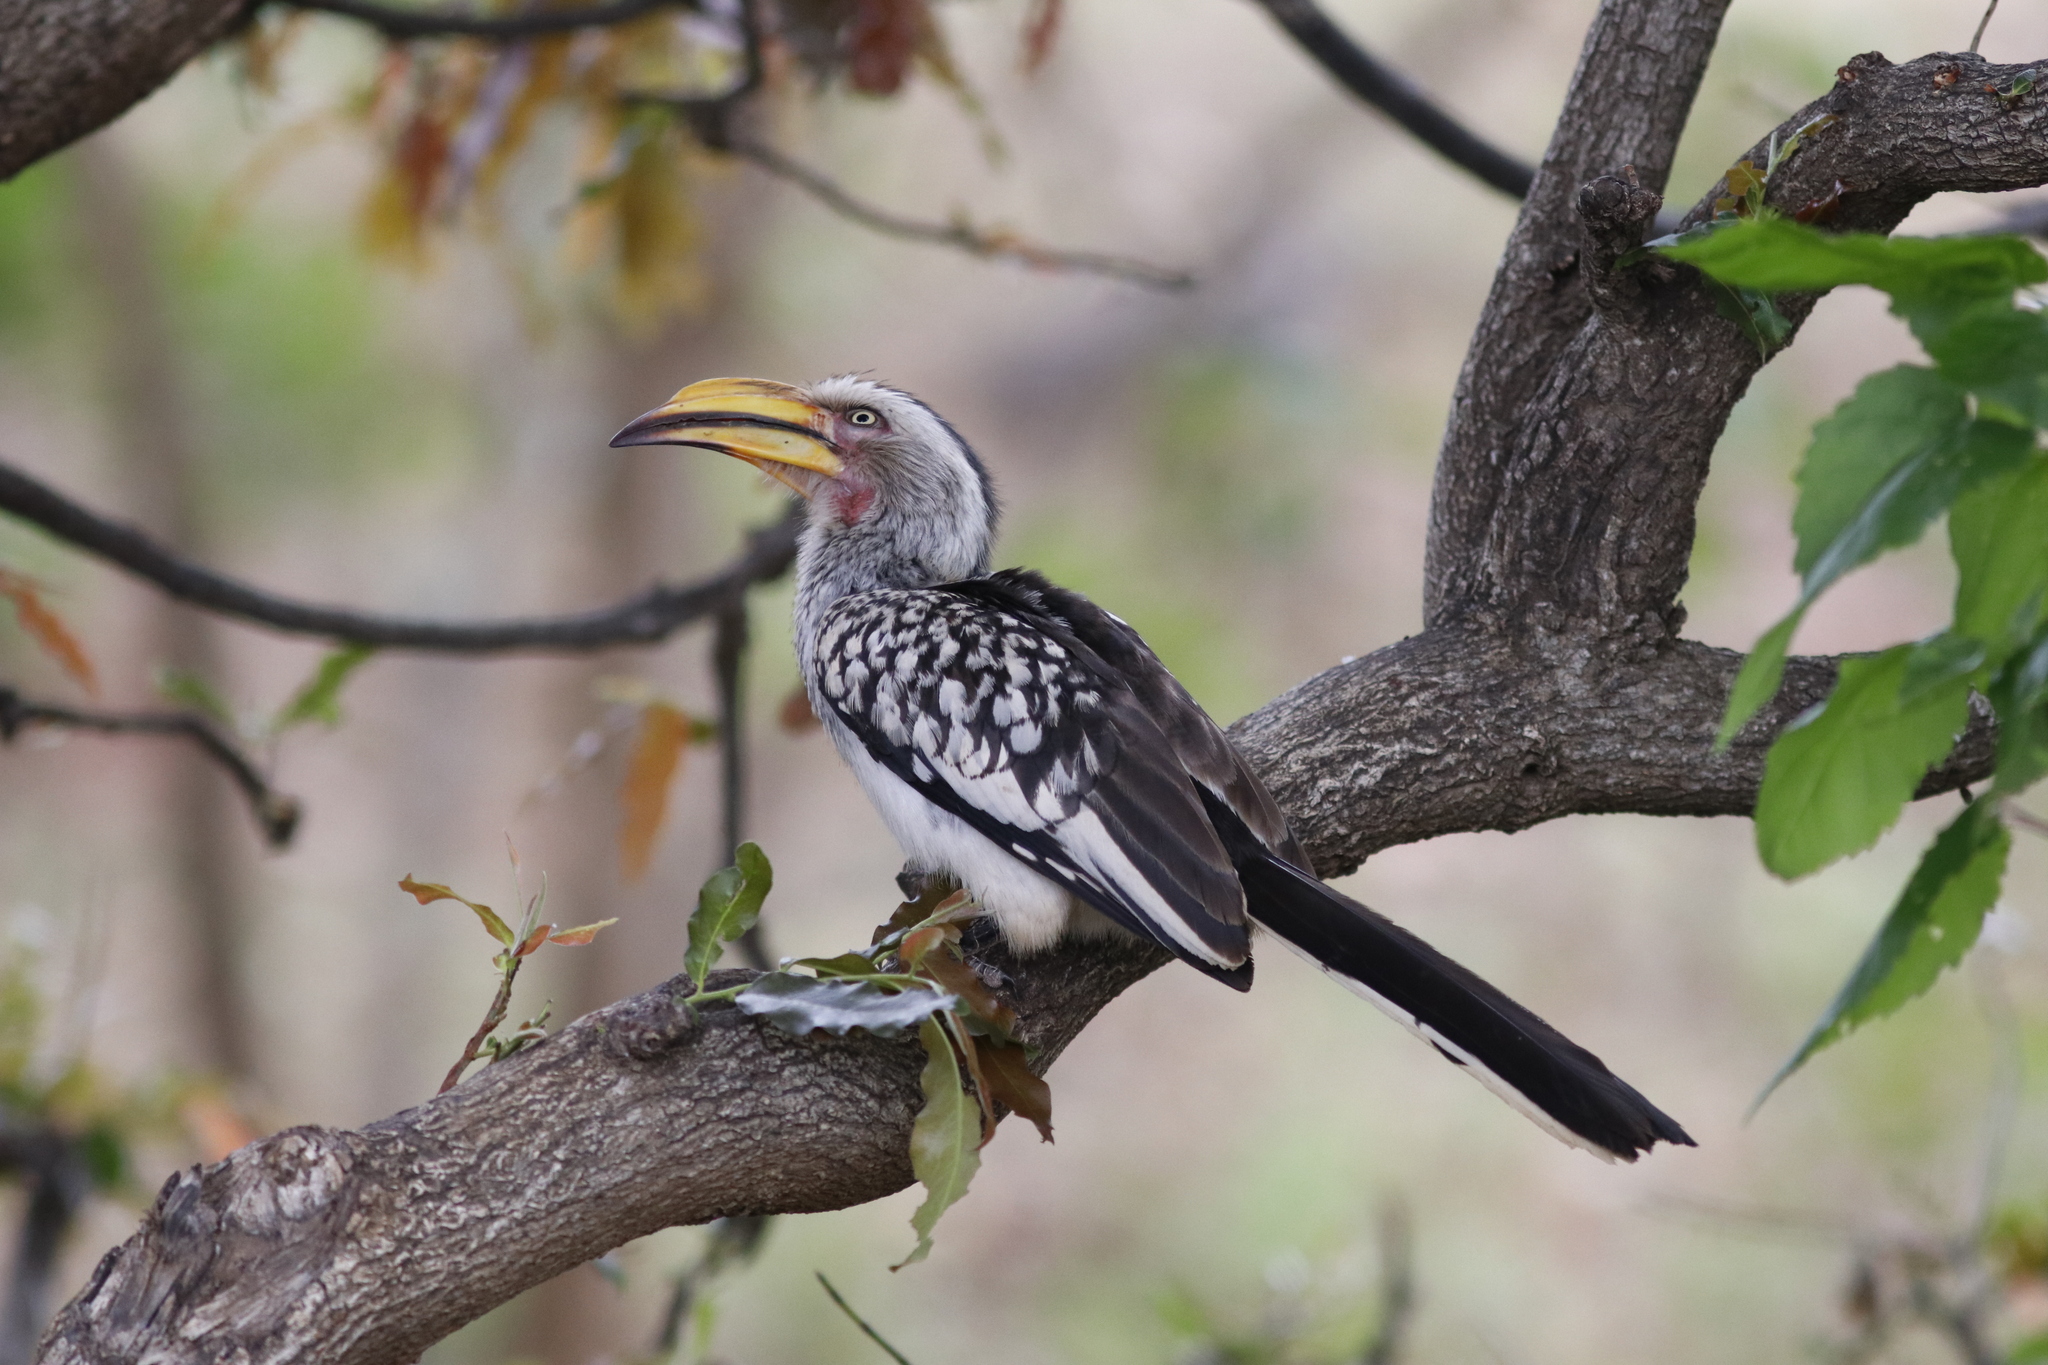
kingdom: Animalia
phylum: Chordata
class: Aves
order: Bucerotiformes
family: Bucerotidae
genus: Tockus
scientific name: Tockus leucomelas
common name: Southern yellow-billed hornbill
